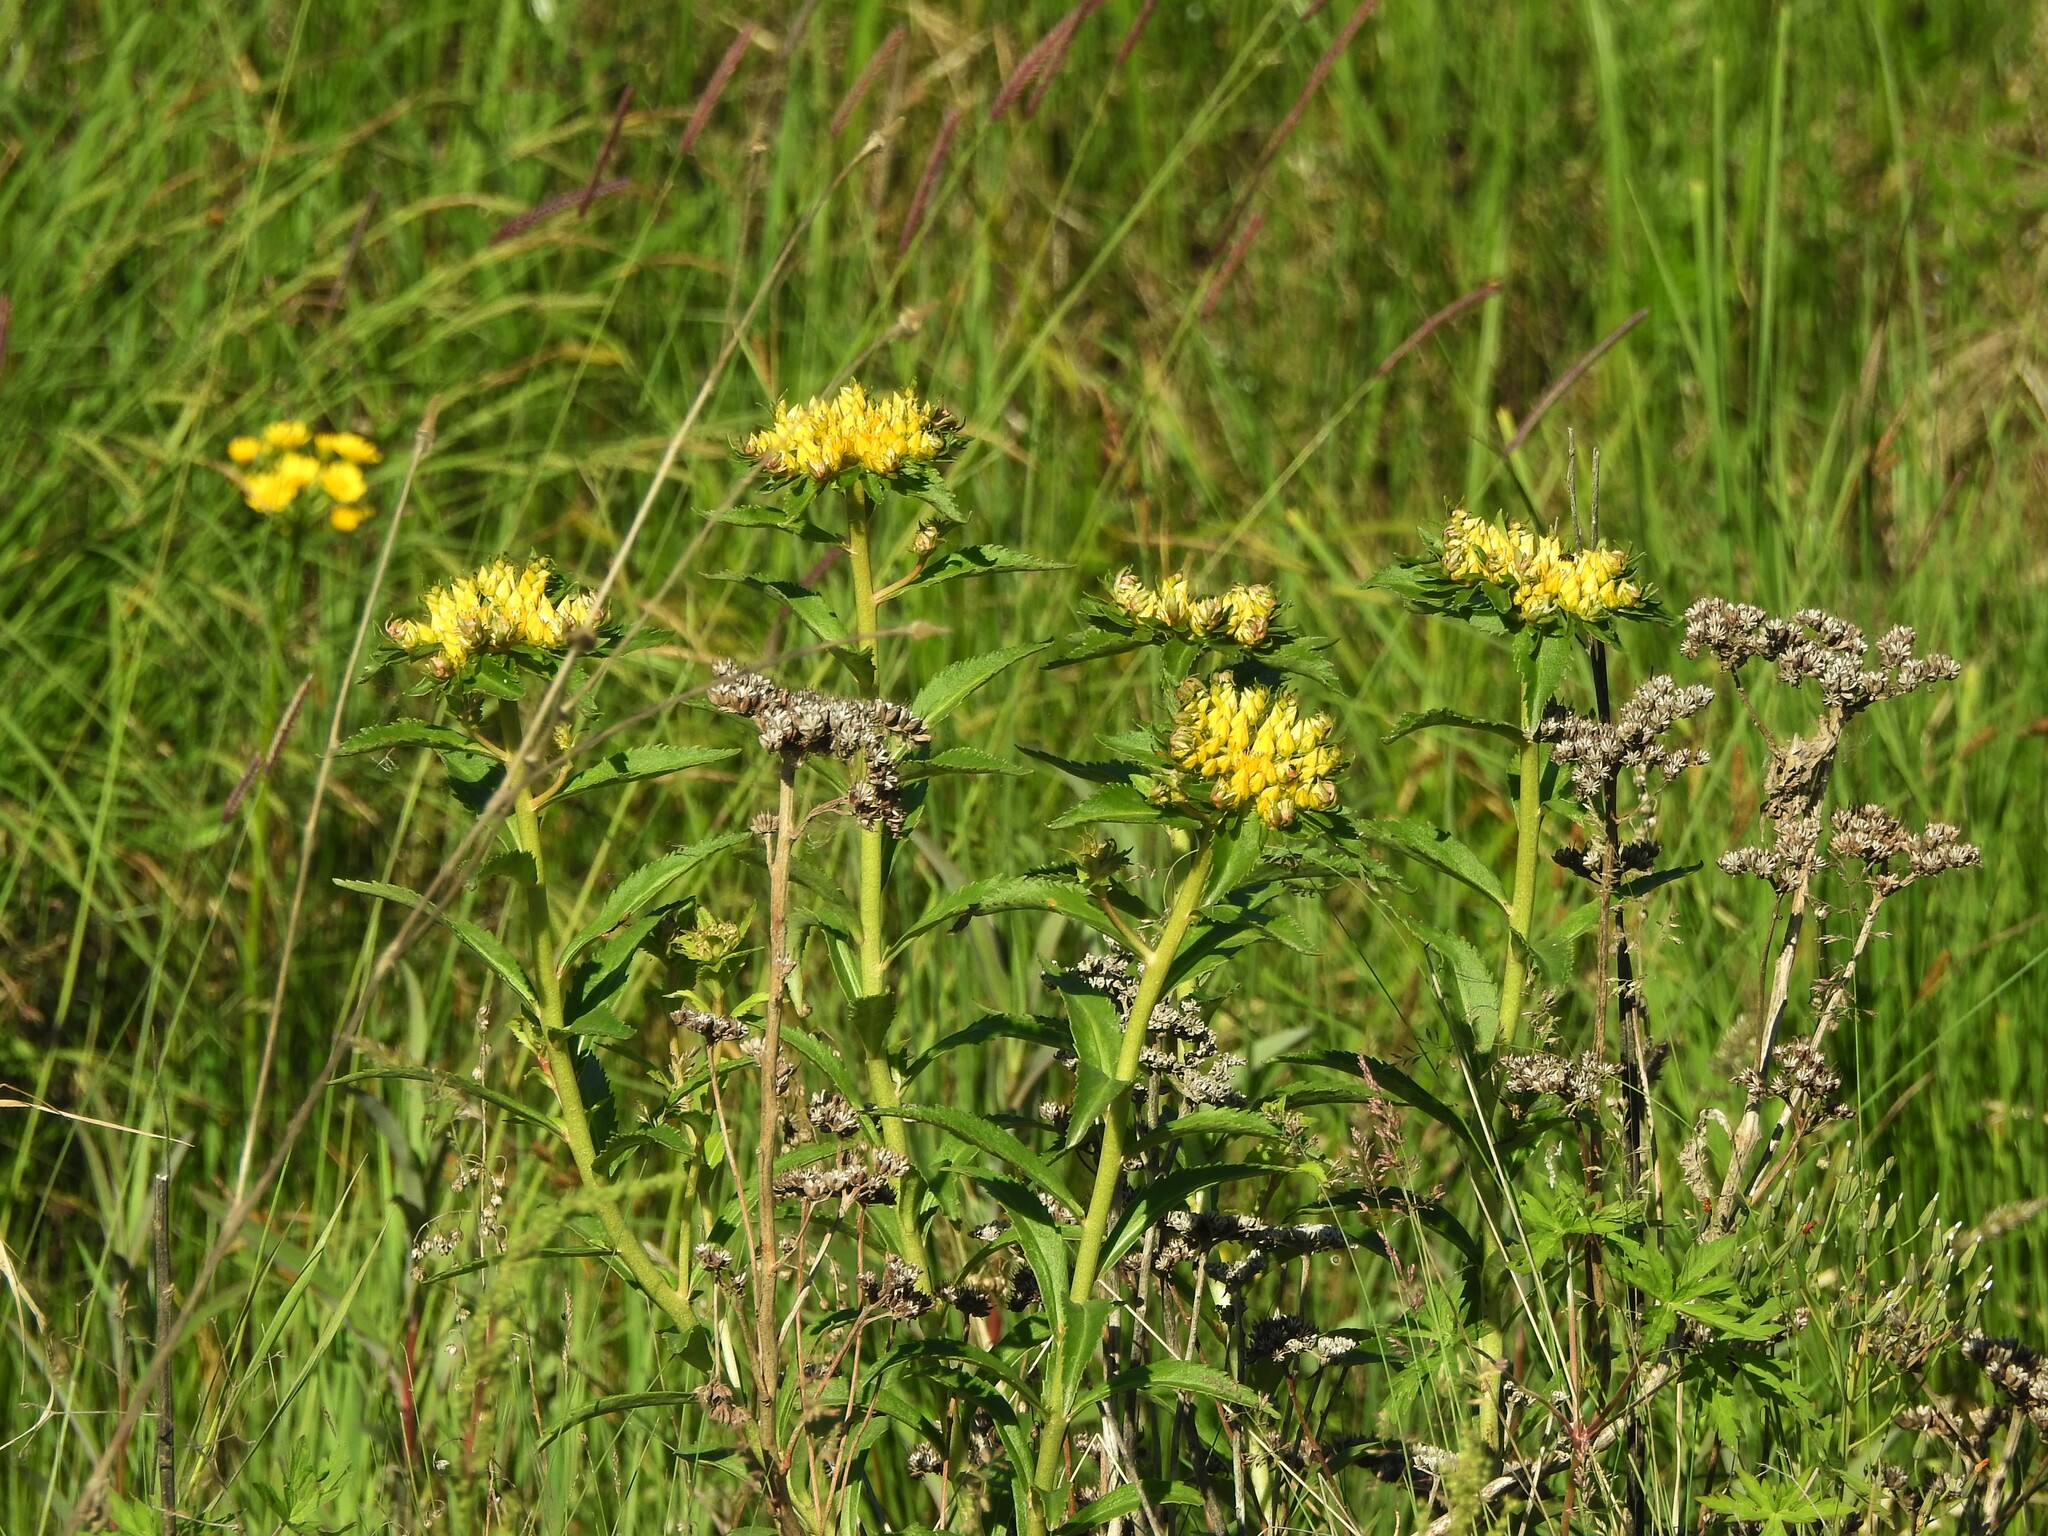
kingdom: Plantae
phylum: Tracheophyta
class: Magnoliopsida
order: Saxifragales
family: Crassulaceae
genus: Phedimus
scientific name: Phedimus aizoon
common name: Orpin aizoon
